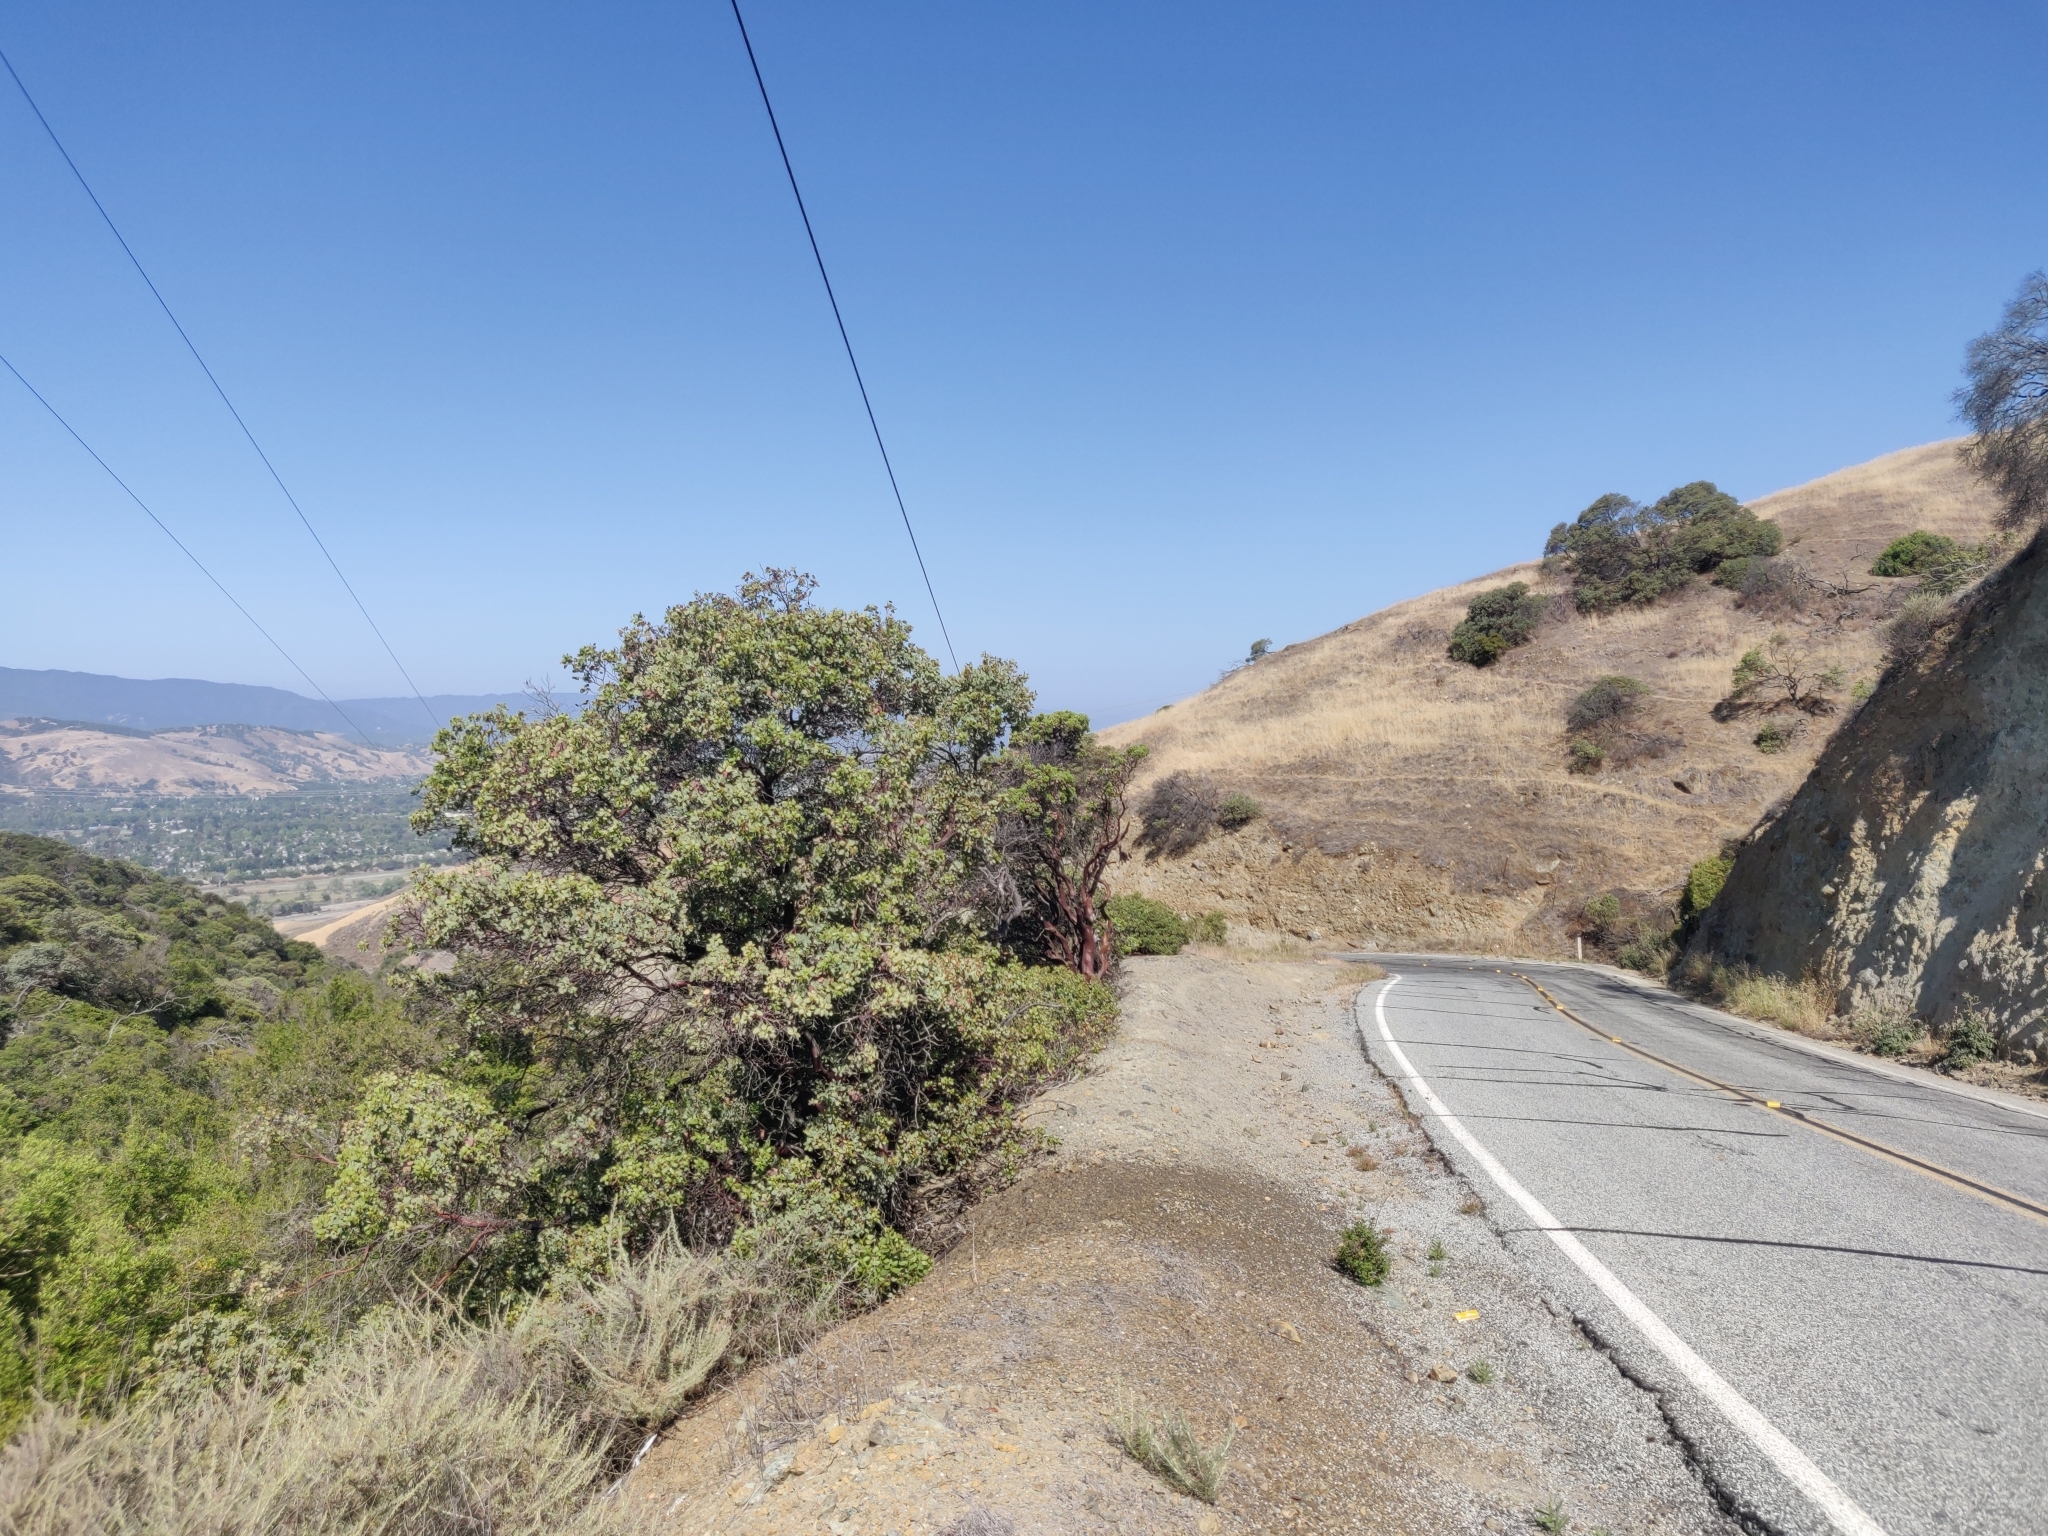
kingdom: Plantae
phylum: Tracheophyta
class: Magnoliopsida
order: Ericales
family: Ericaceae
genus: Arctostaphylos
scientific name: Arctostaphylos glauca
